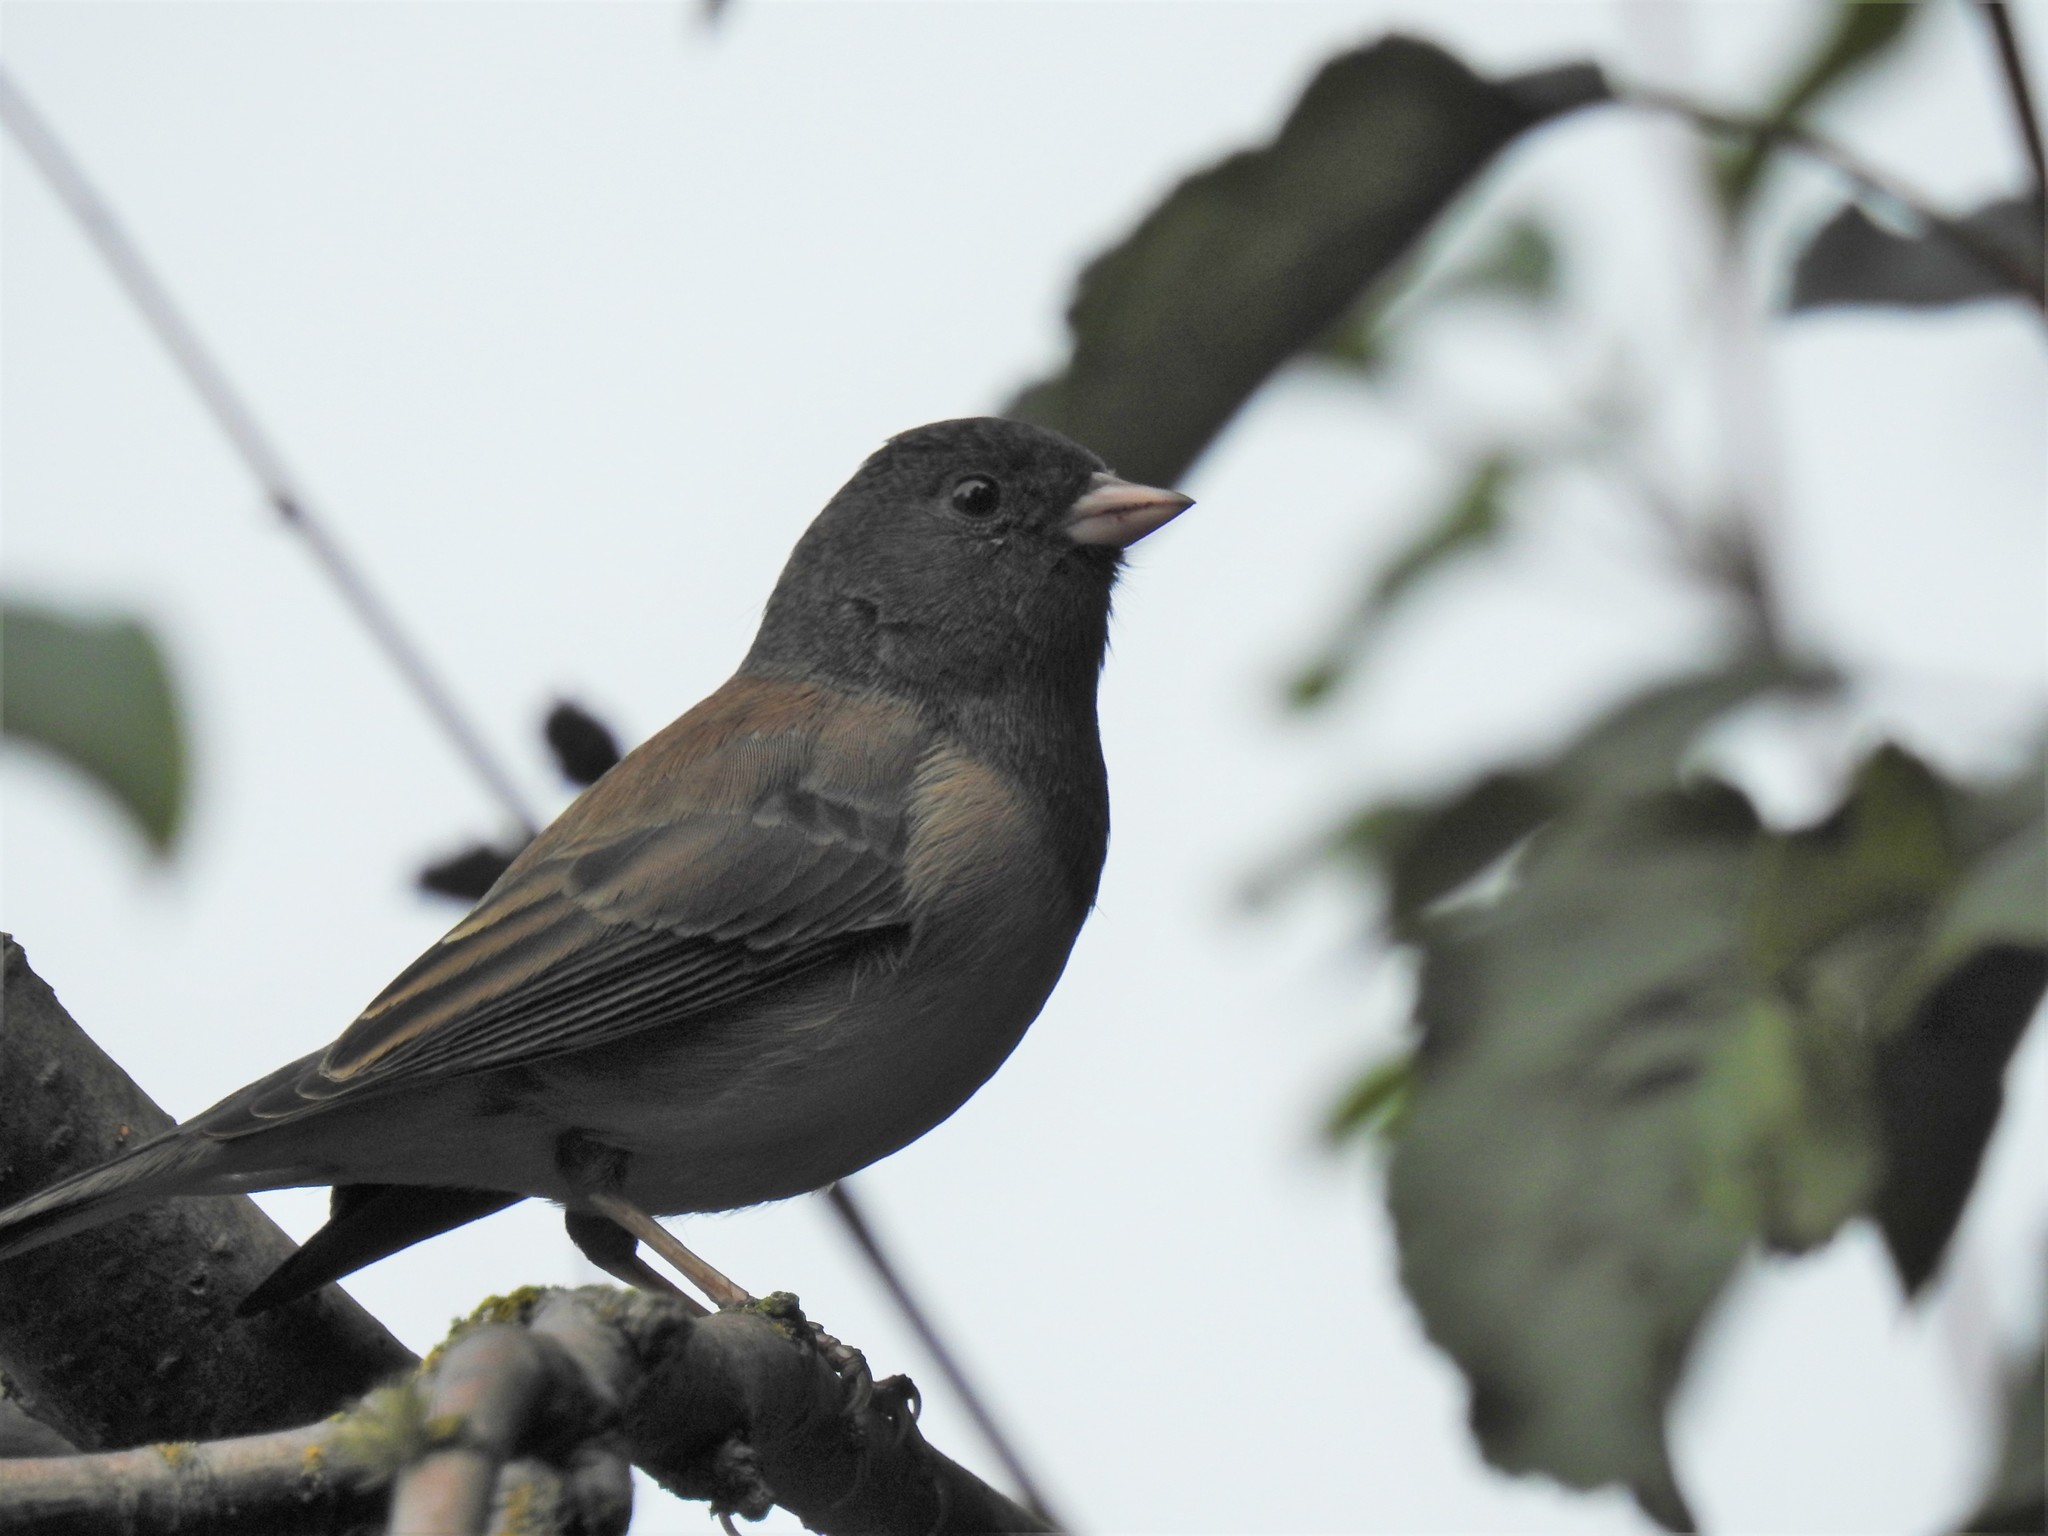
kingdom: Animalia
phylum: Chordata
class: Aves
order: Passeriformes
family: Passerellidae
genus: Junco
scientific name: Junco hyemalis
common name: Dark-eyed junco
